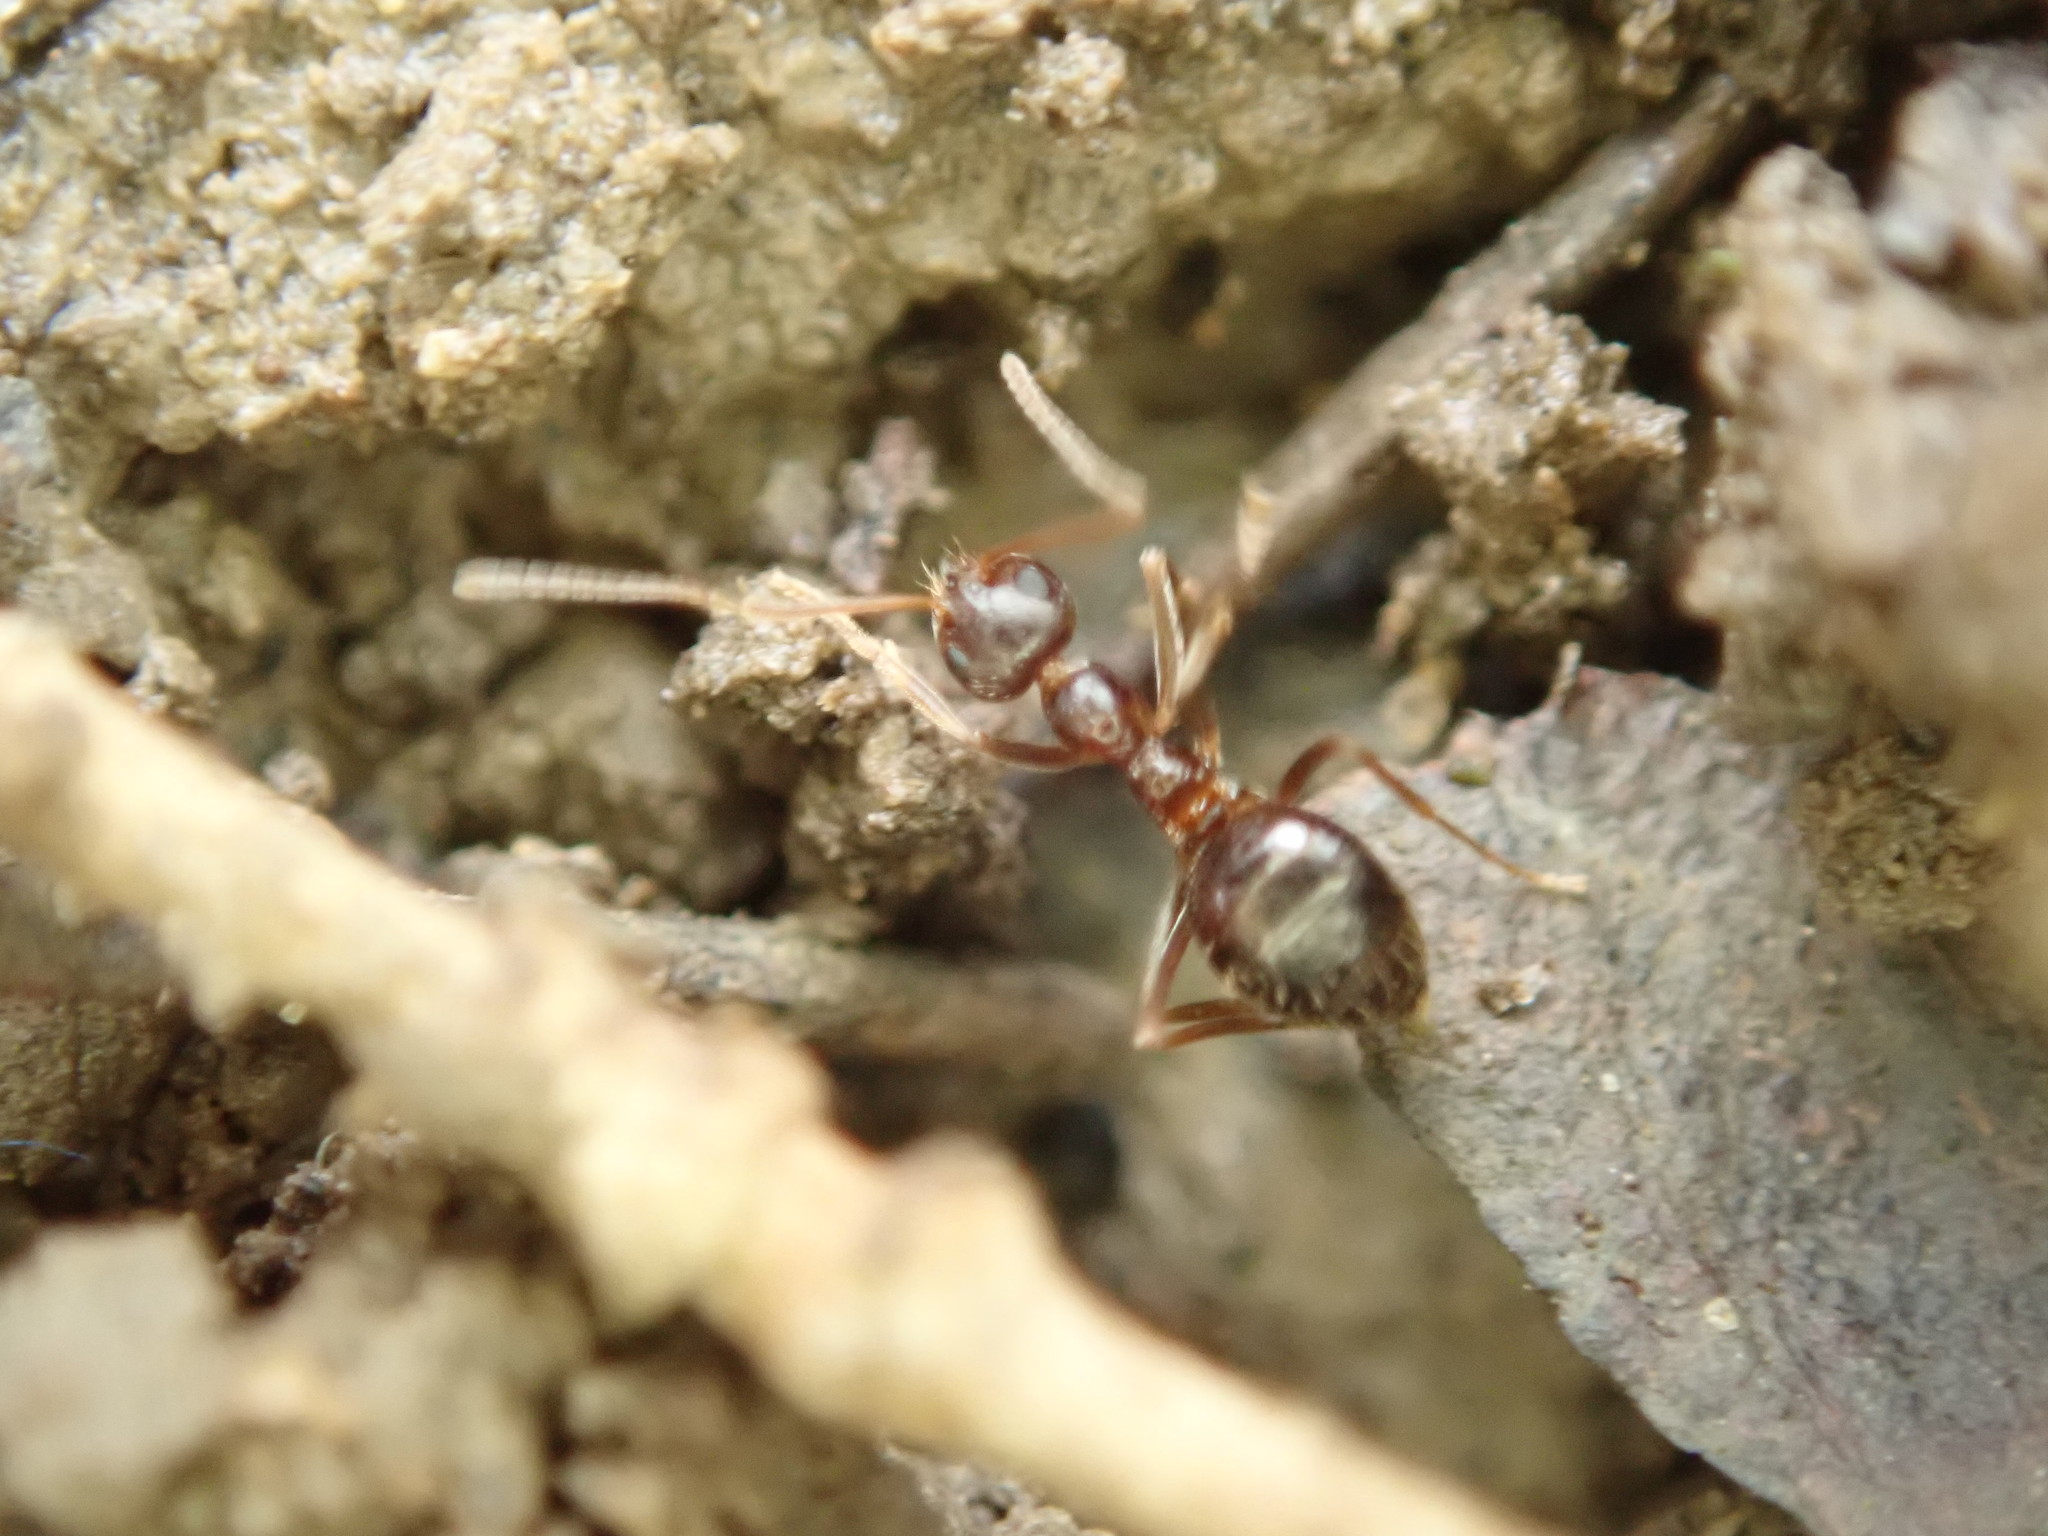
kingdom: Animalia
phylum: Arthropoda
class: Insecta
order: Hymenoptera
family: Formicidae
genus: Prenolepis
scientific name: Prenolepis imparis
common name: Small honey ant
